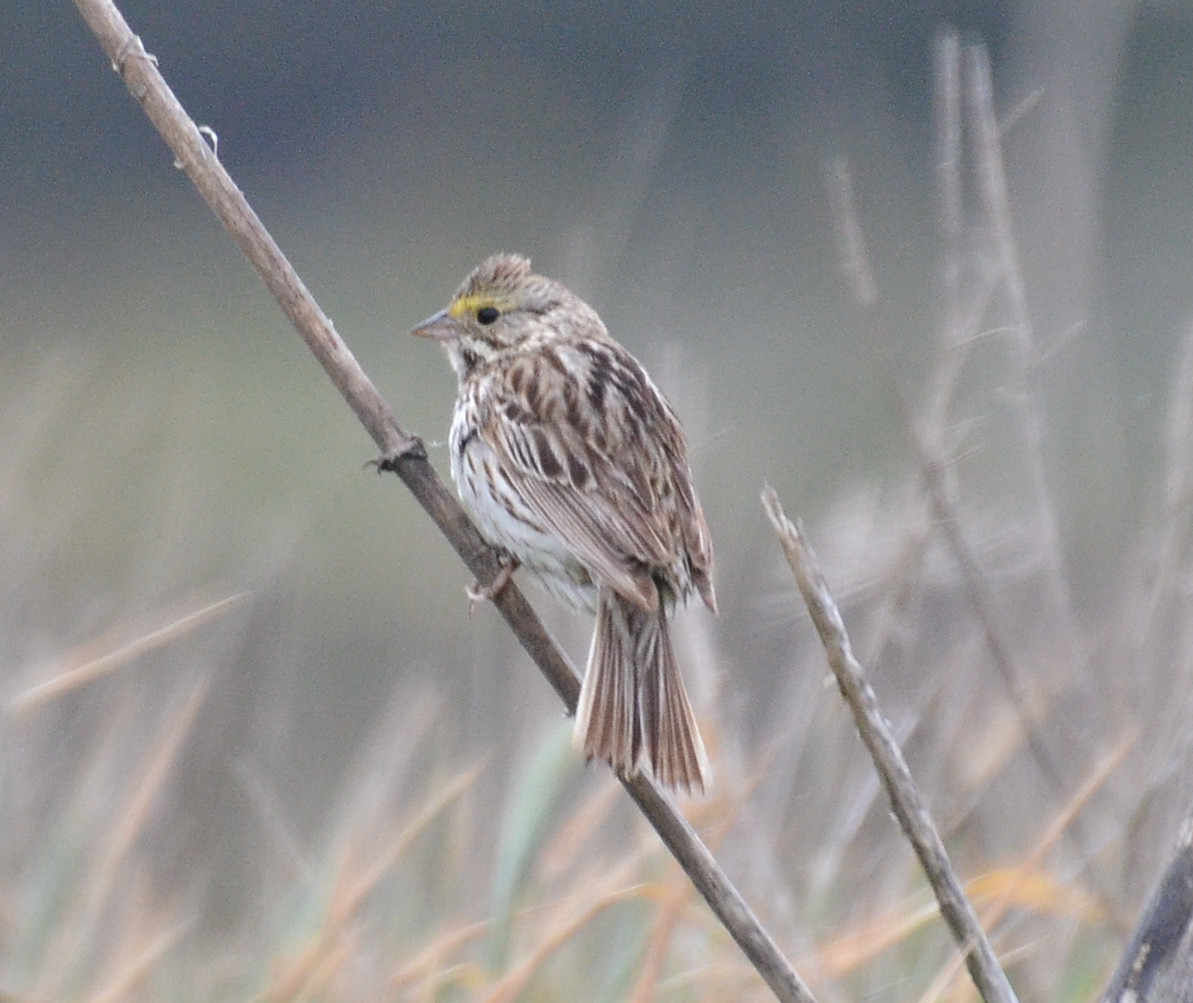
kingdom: Animalia
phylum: Chordata
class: Aves
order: Passeriformes
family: Passerellidae
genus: Passerculus
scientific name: Passerculus sandwichensis
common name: Savannah sparrow
